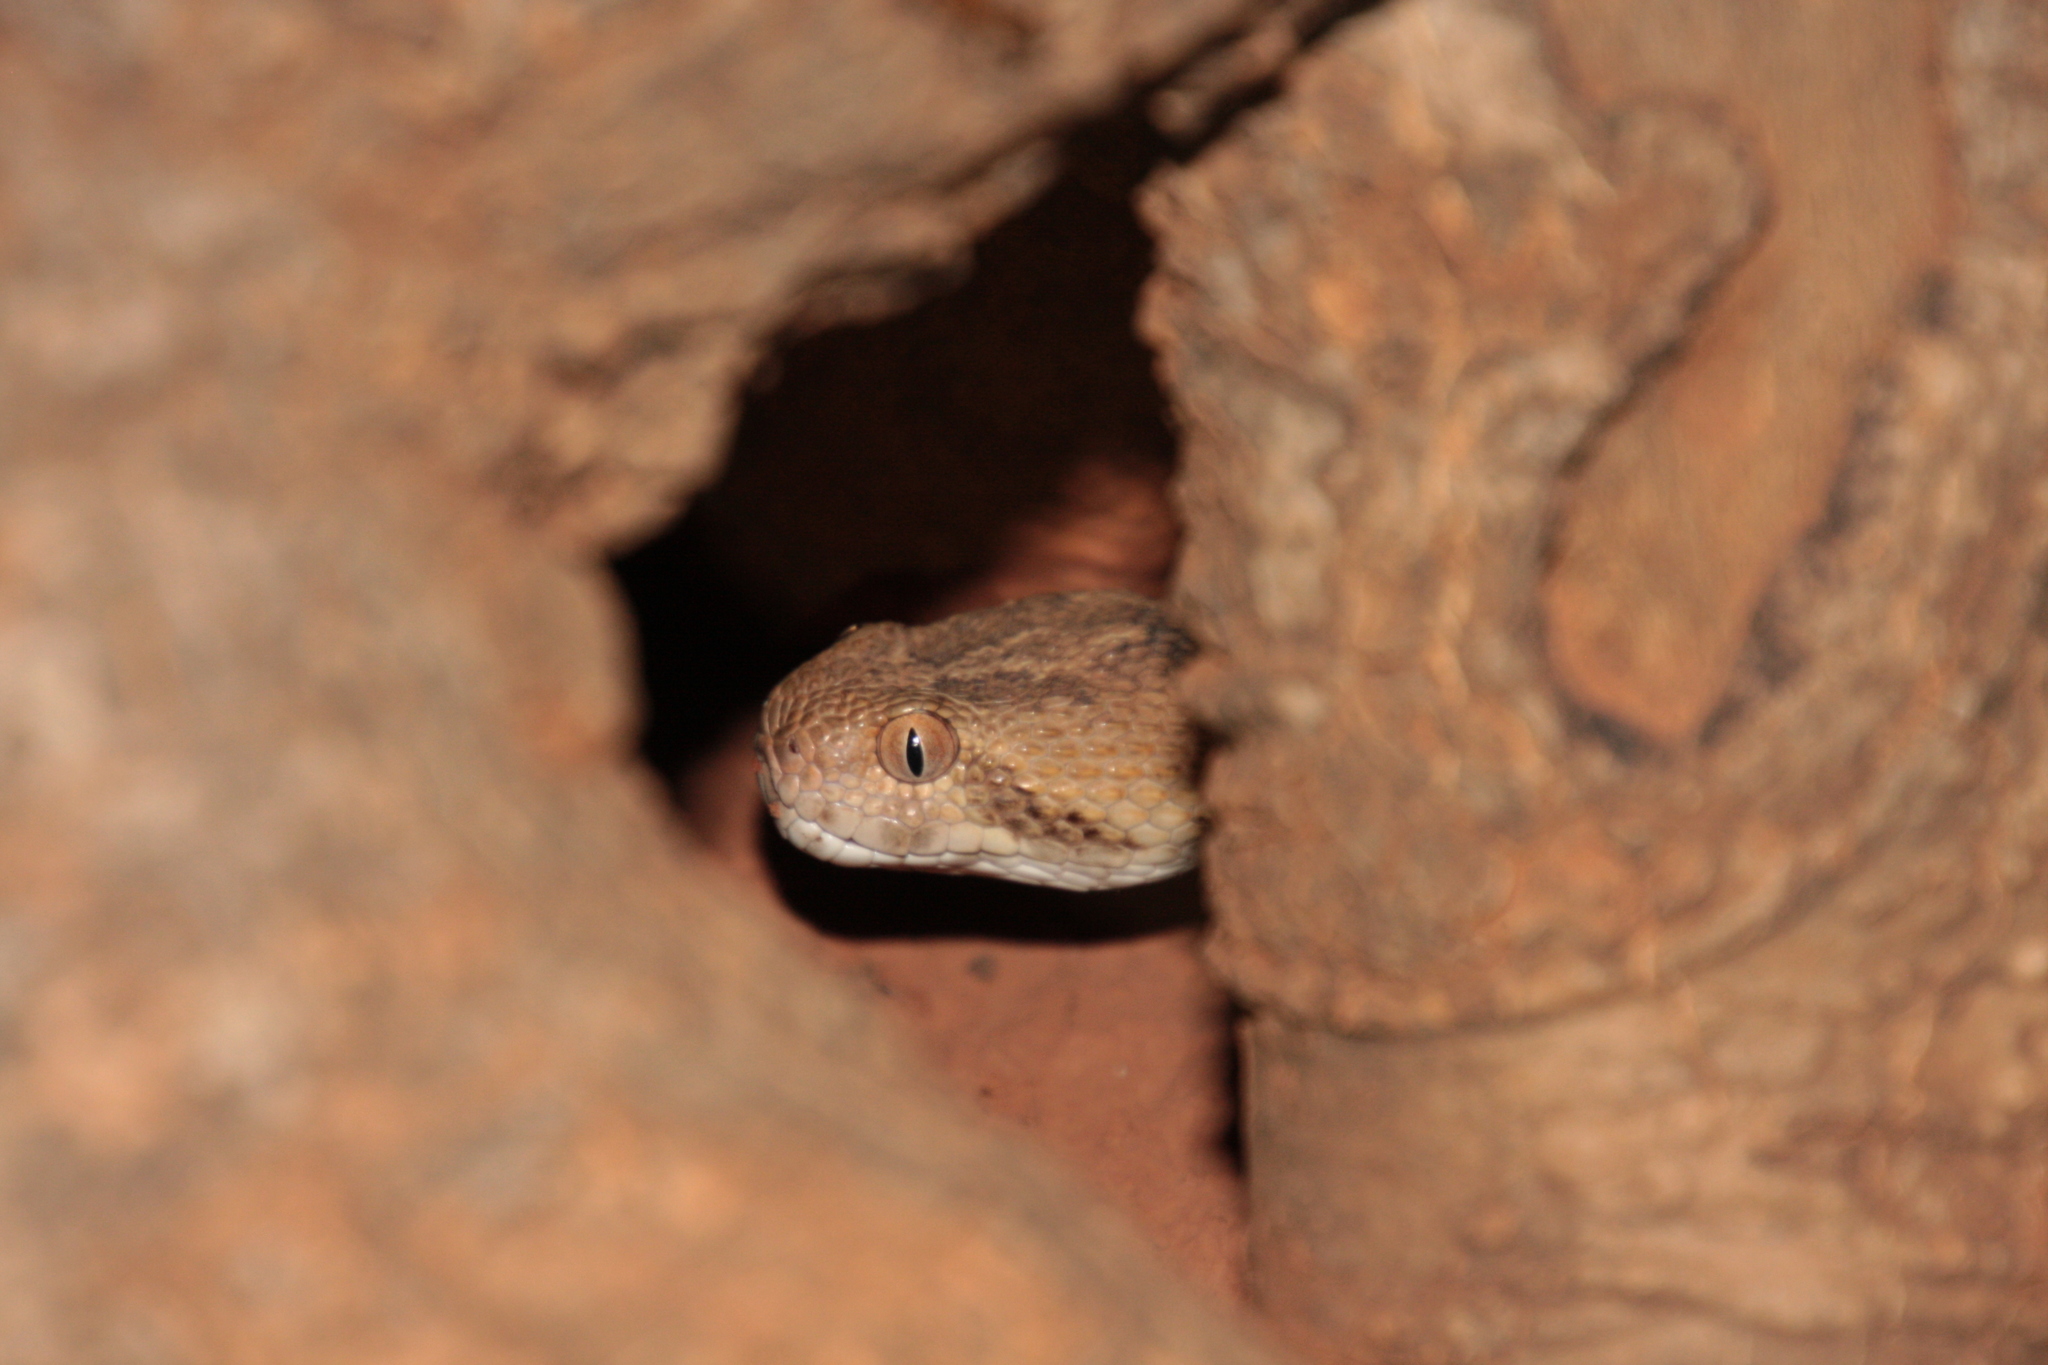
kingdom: Animalia
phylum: Chordata
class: Squamata
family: Viperidae
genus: Echis
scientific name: Echis leucogaster
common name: White-bellied carpet viper
